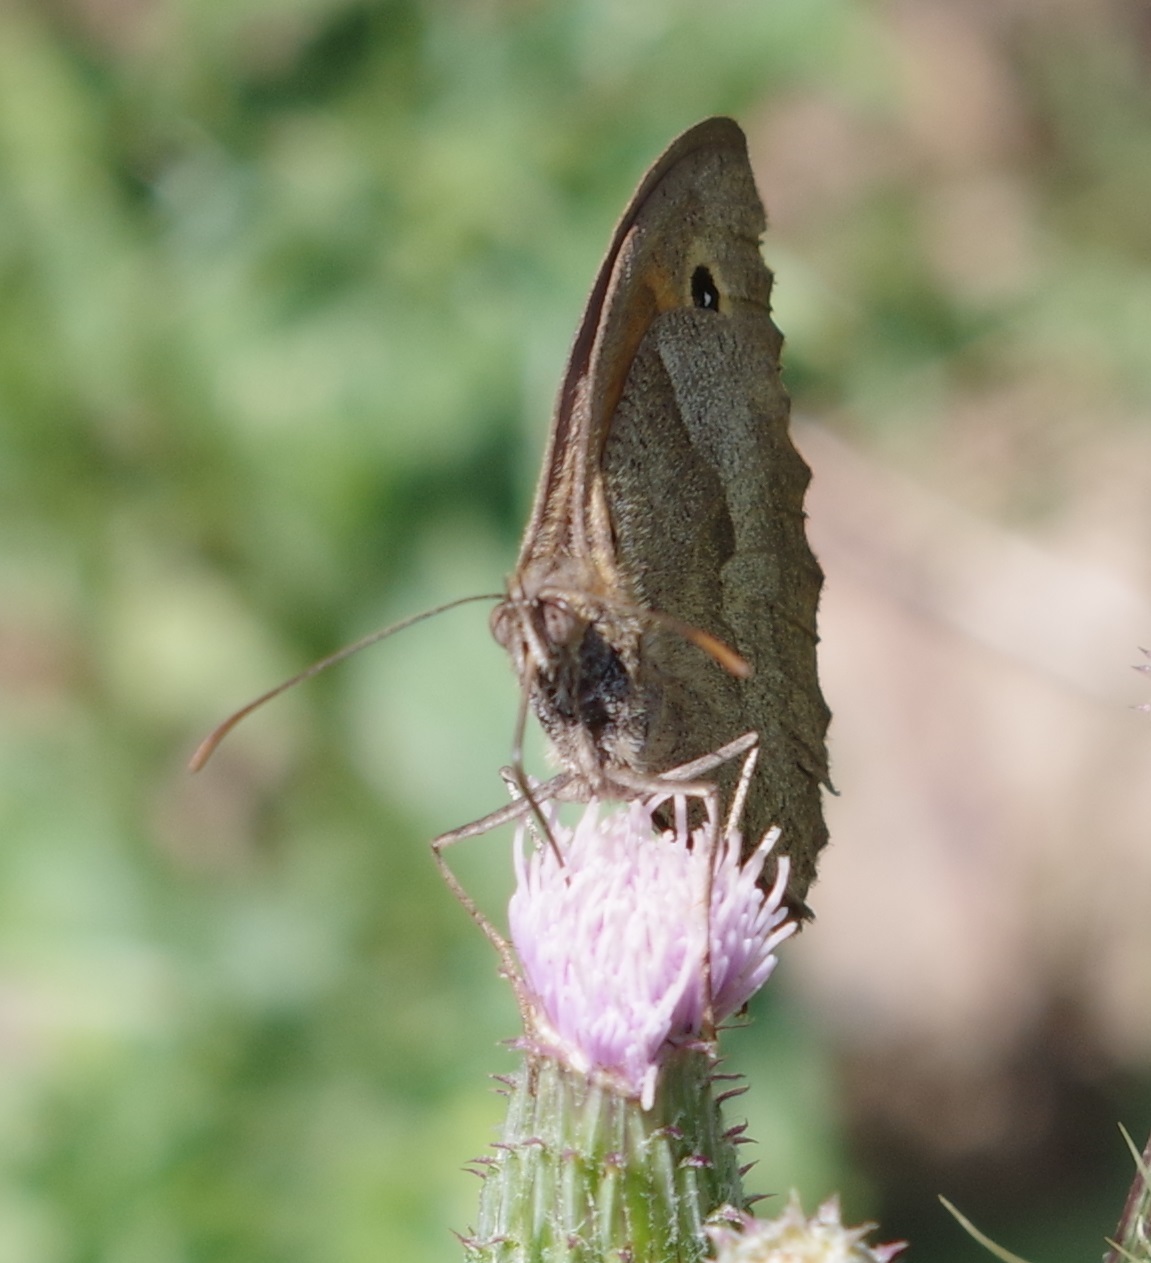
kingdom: Animalia
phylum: Arthropoda
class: Insecta
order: Lepidoptera
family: Nymphalidae
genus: Maniola
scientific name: Maniola jurtina
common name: Meadow brown
